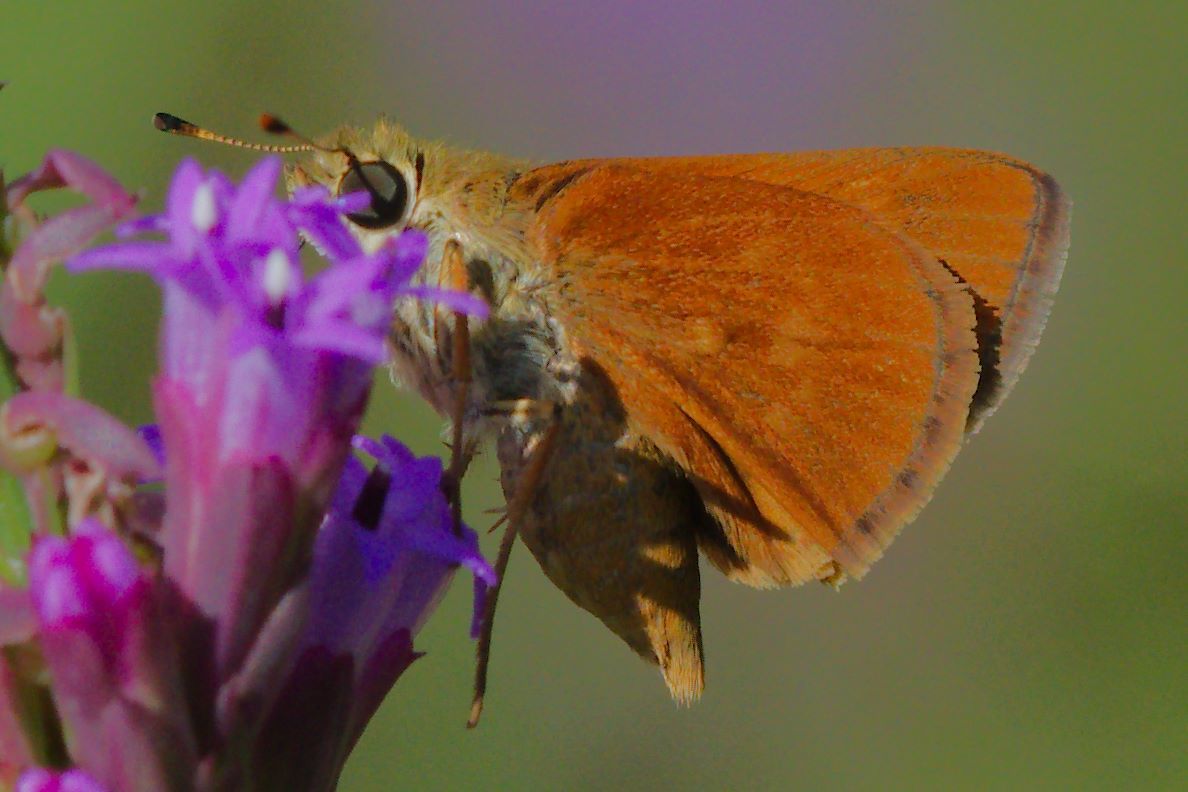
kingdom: Animalia
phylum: Arthropoda
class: Insecta
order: Lepidoptera
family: Hesperiidae
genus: Polites
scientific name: Polites otho
